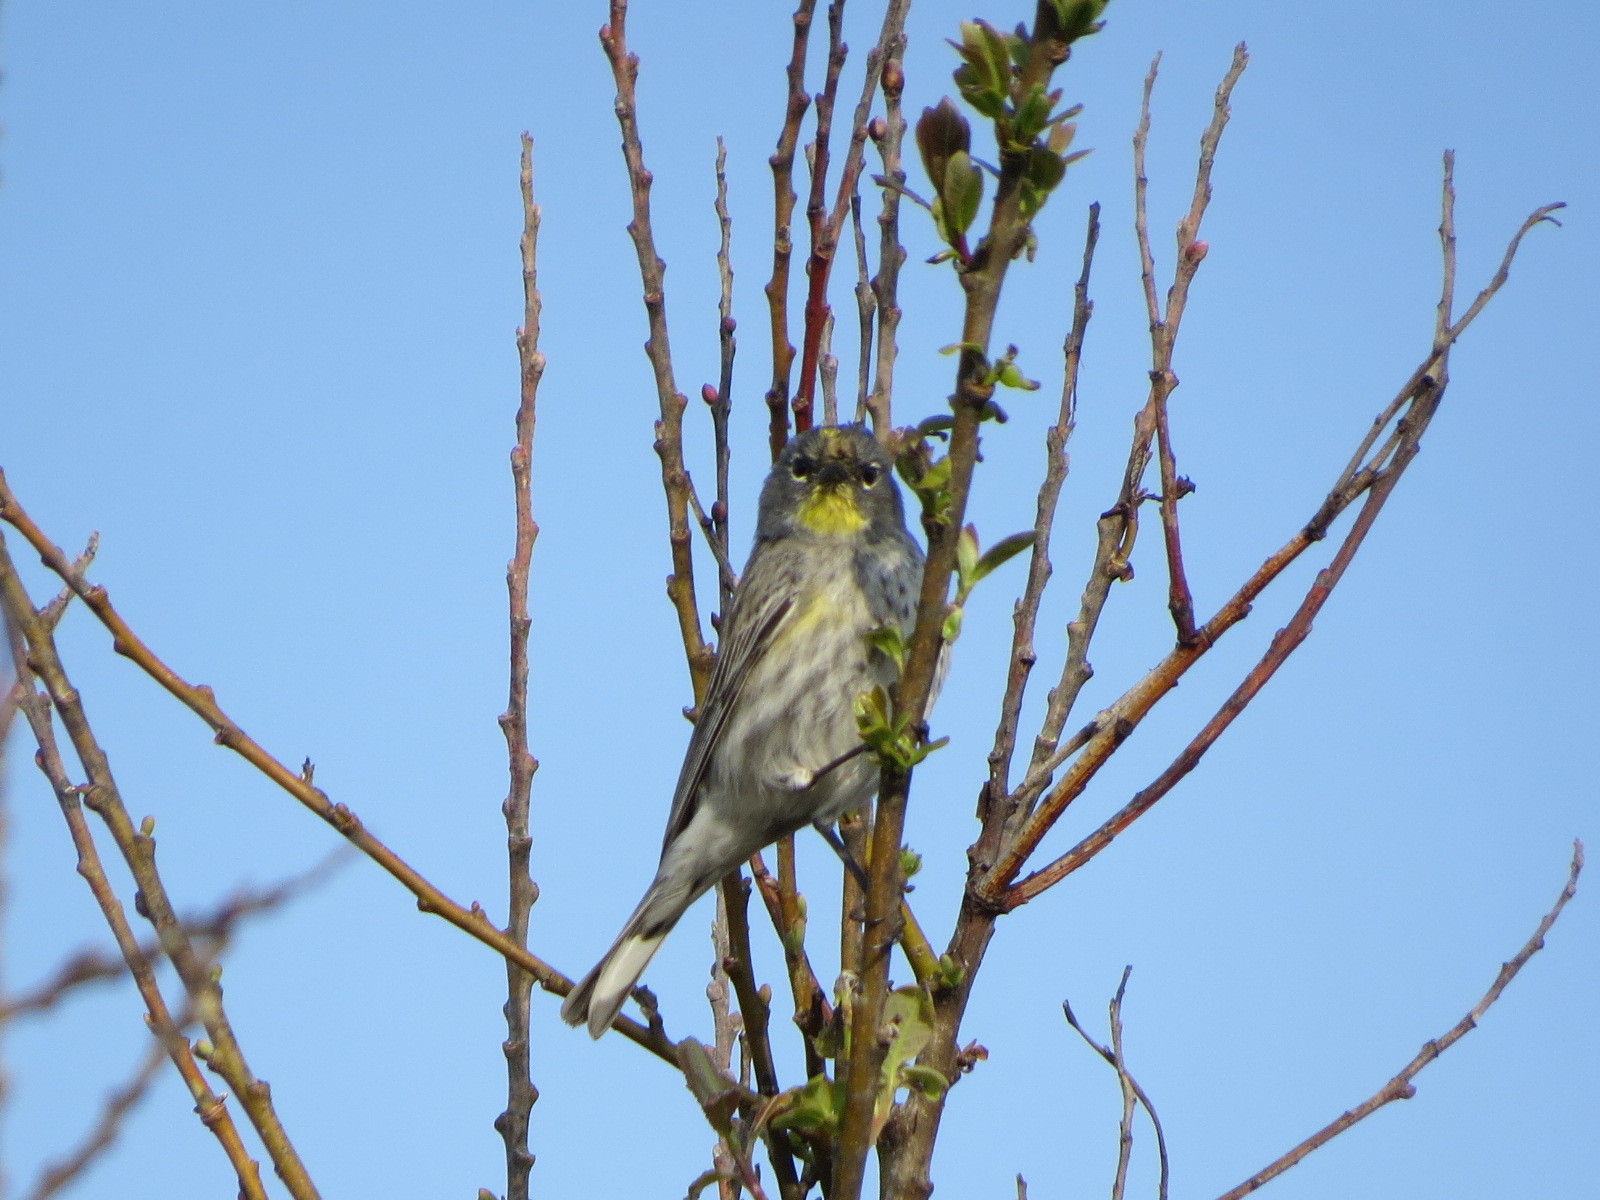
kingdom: Animalia
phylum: Chordata
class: Aves
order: Passeriformes
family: Parulidae
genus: Setophaga
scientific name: Setophaga auduboni
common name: Audubon's warbler
